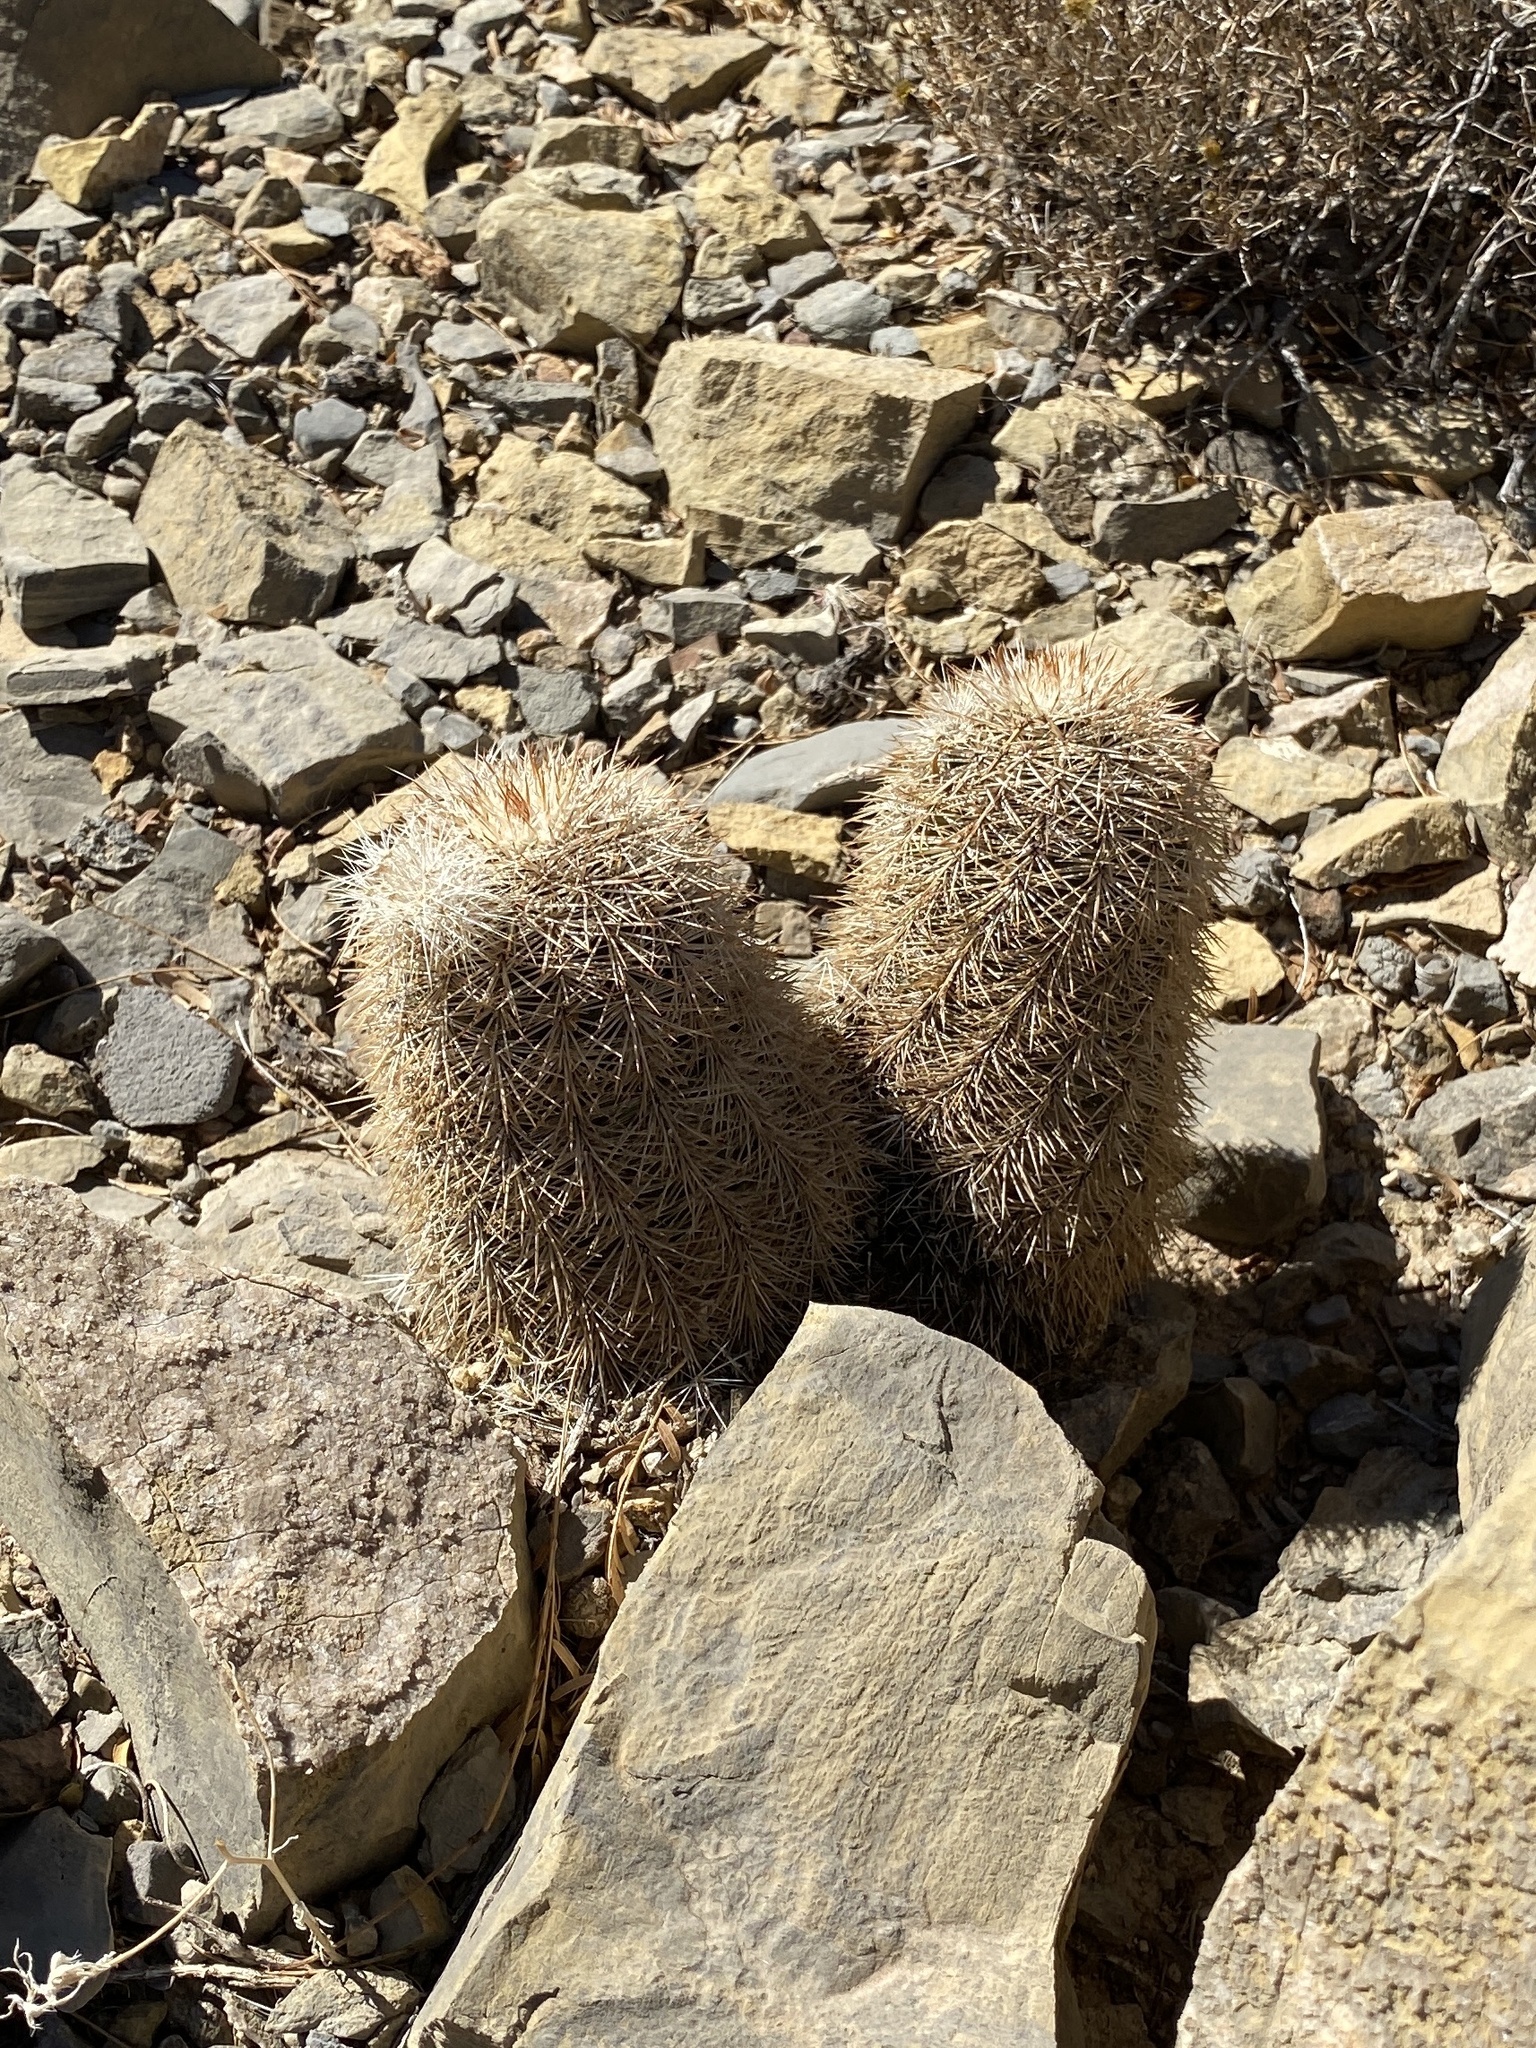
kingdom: Plantae
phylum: Tracheophyta
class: Magnoliopsida
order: Caryophyllales
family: Cactaceae
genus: Echinocereus
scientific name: Echinocereus dasyacanthus
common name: Spiny hedgehog cactus
